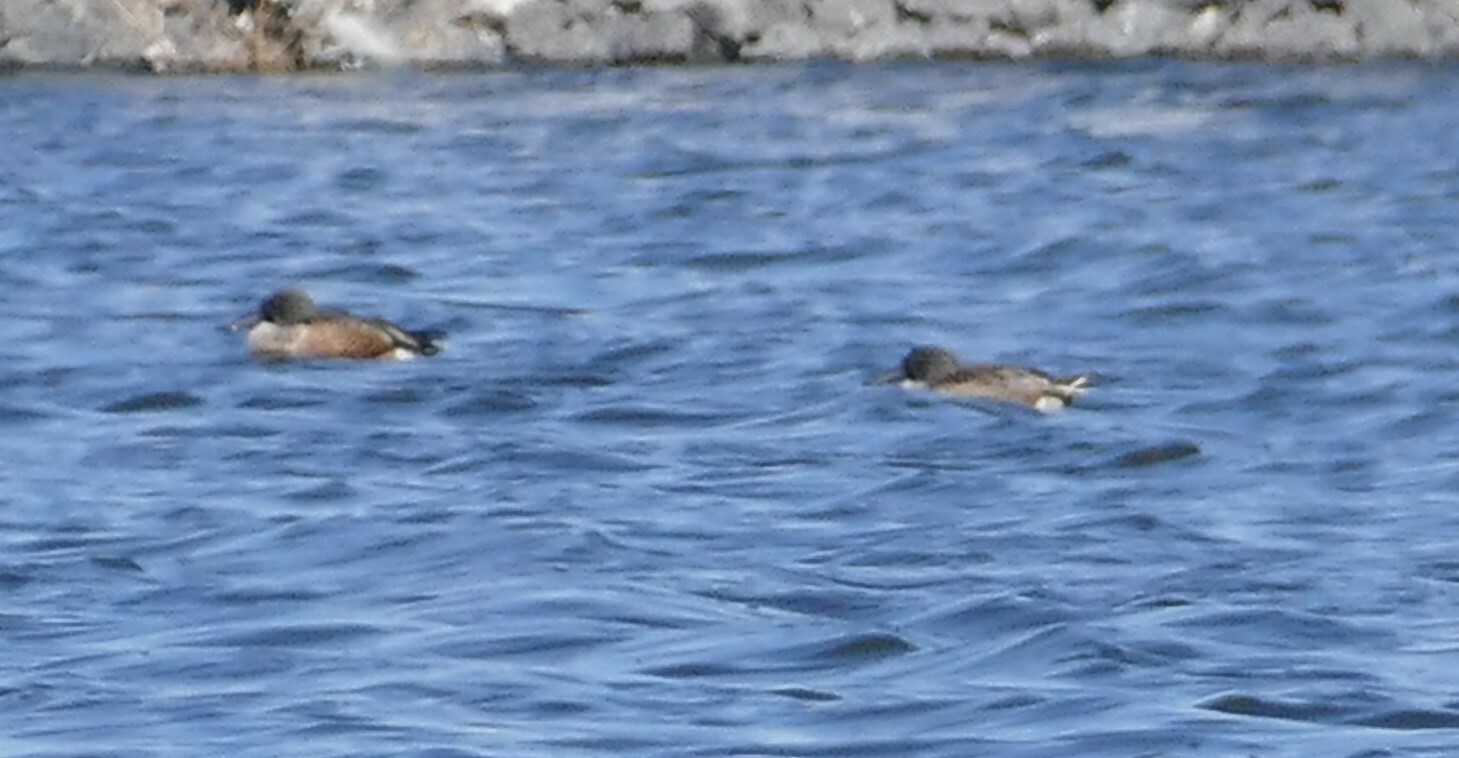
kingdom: Animalia
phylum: Chordata
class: Aves
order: Anseriformes
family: Anatidae
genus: Spatula
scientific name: Spatula clypeata
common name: Northern shoveler
